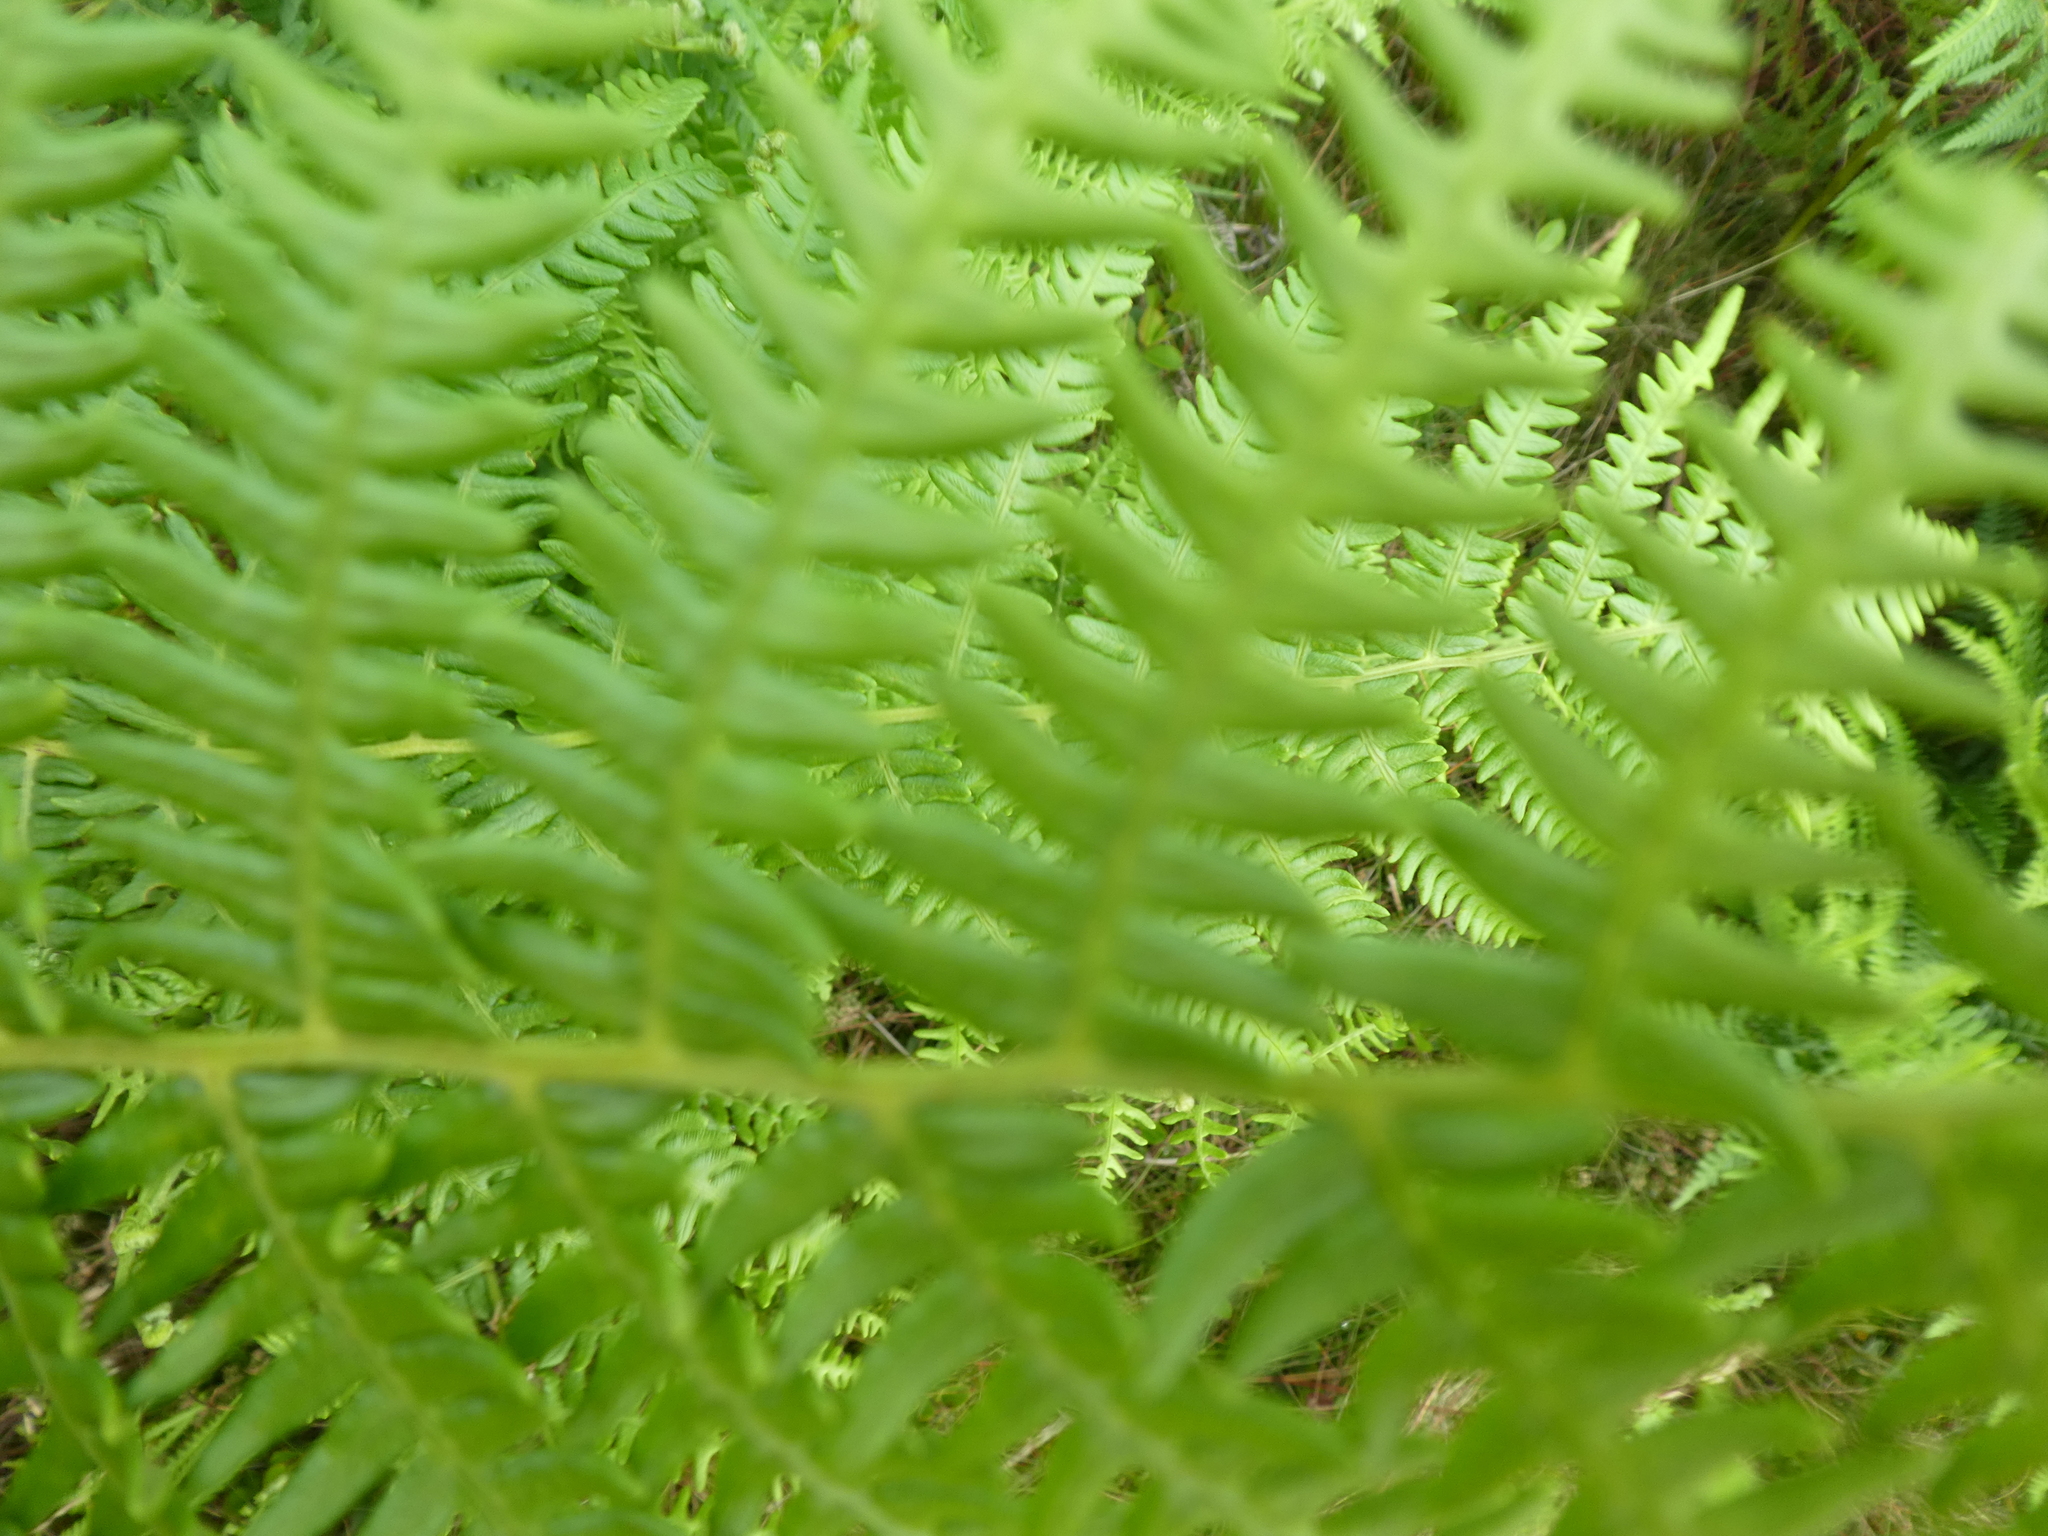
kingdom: Plantae
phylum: Tracheophyta
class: Polypodiopsida
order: Polypodiales
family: Dennstaedtiaceae
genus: Pteridium
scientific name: Pteridium aquilinum
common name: Bracken
